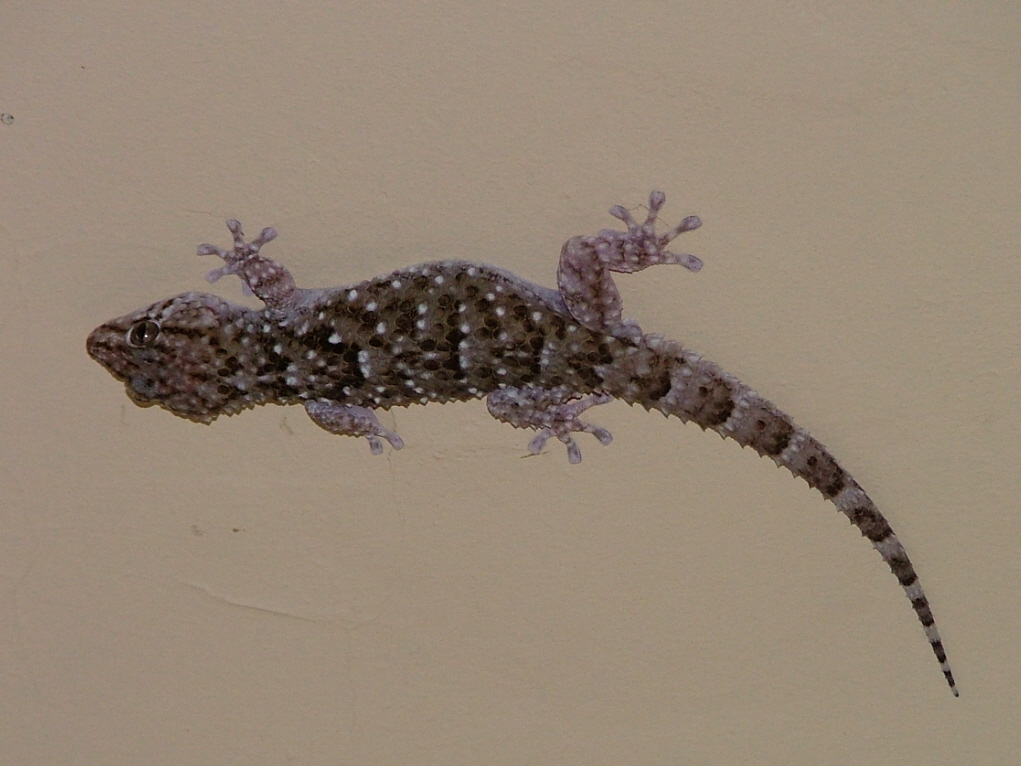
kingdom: Animalia
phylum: Chordata
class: Squamata
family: Gekkonidae
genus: Chondrodactylus
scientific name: Chondrodactylus turneri
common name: Turner’s gecko
